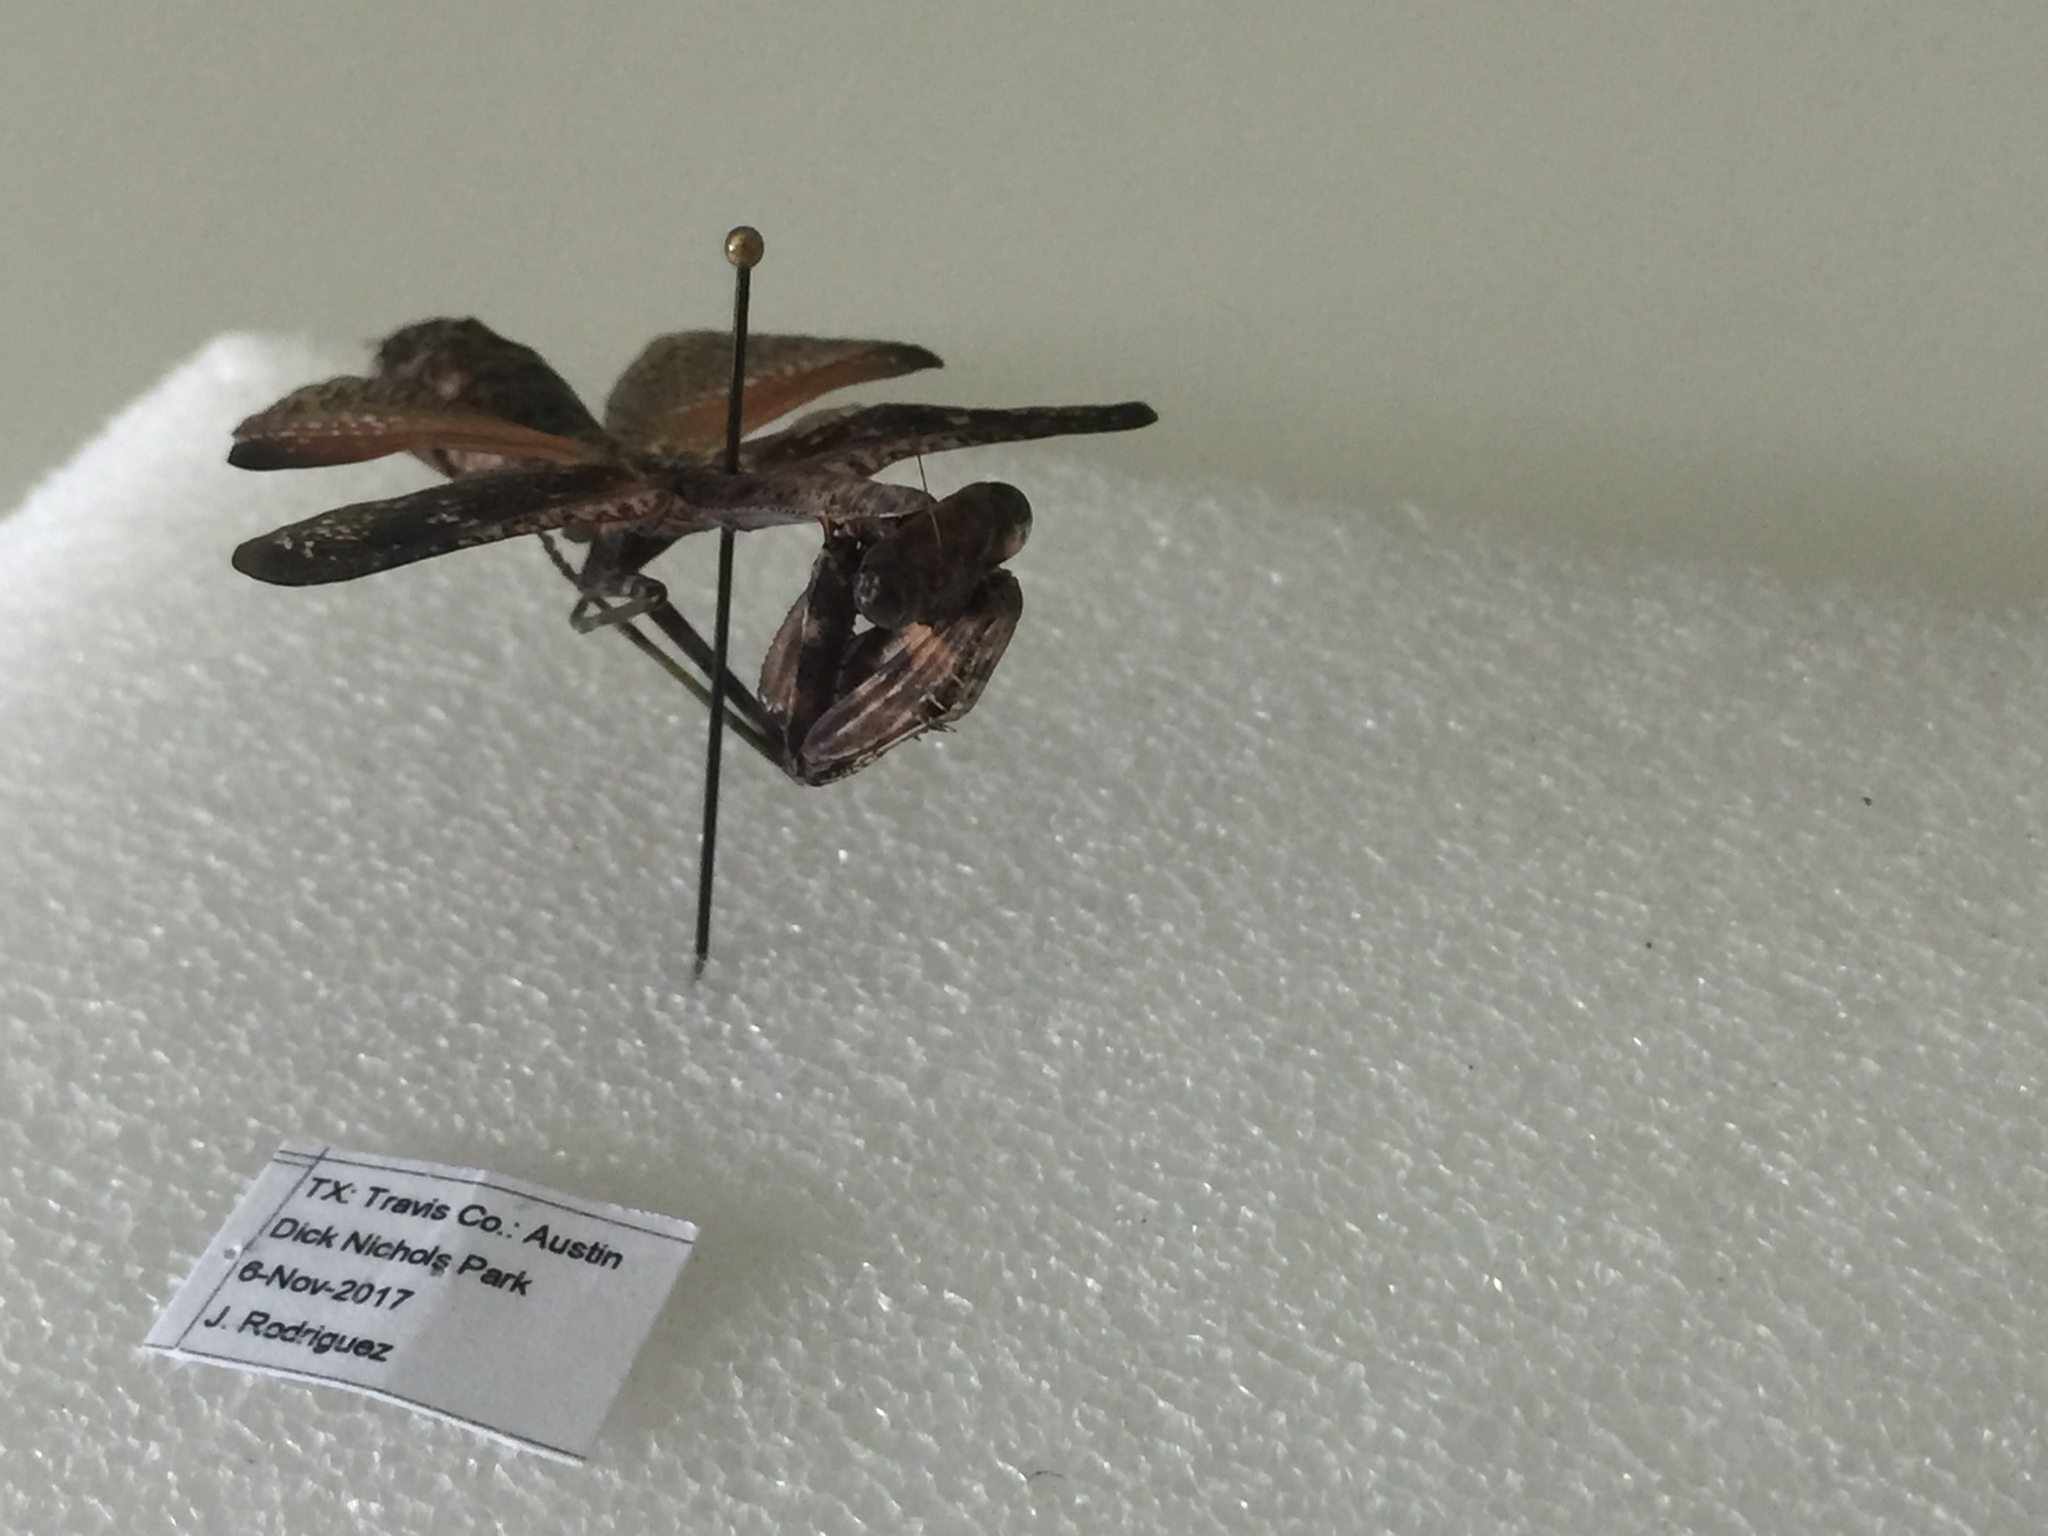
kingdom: Animalia
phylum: Arthropoda
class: Insecta
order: Mantodea
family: Mantidae
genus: Stagmomantis
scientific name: Stagmomantis carolina
